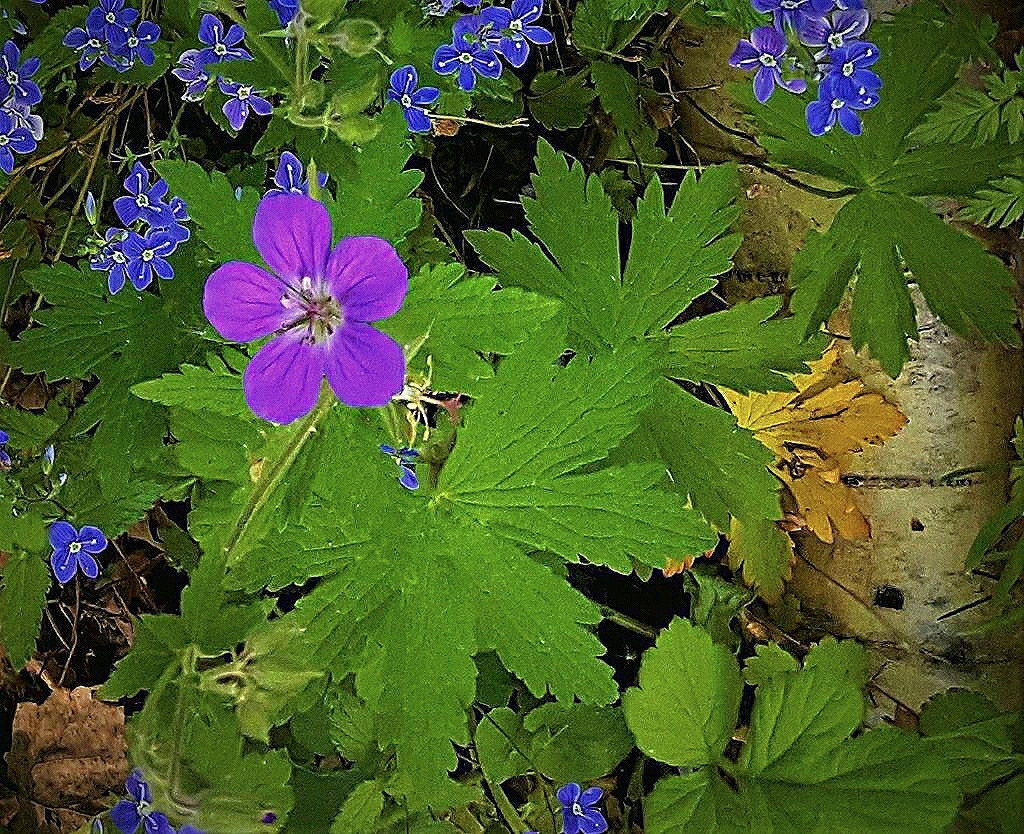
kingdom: Plantae
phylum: Tracheophyta
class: Magnoliopsida
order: Geraniales
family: Geraniaceae
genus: Geranium
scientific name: Geranium sylvaticum
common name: Wood crane's-bill
